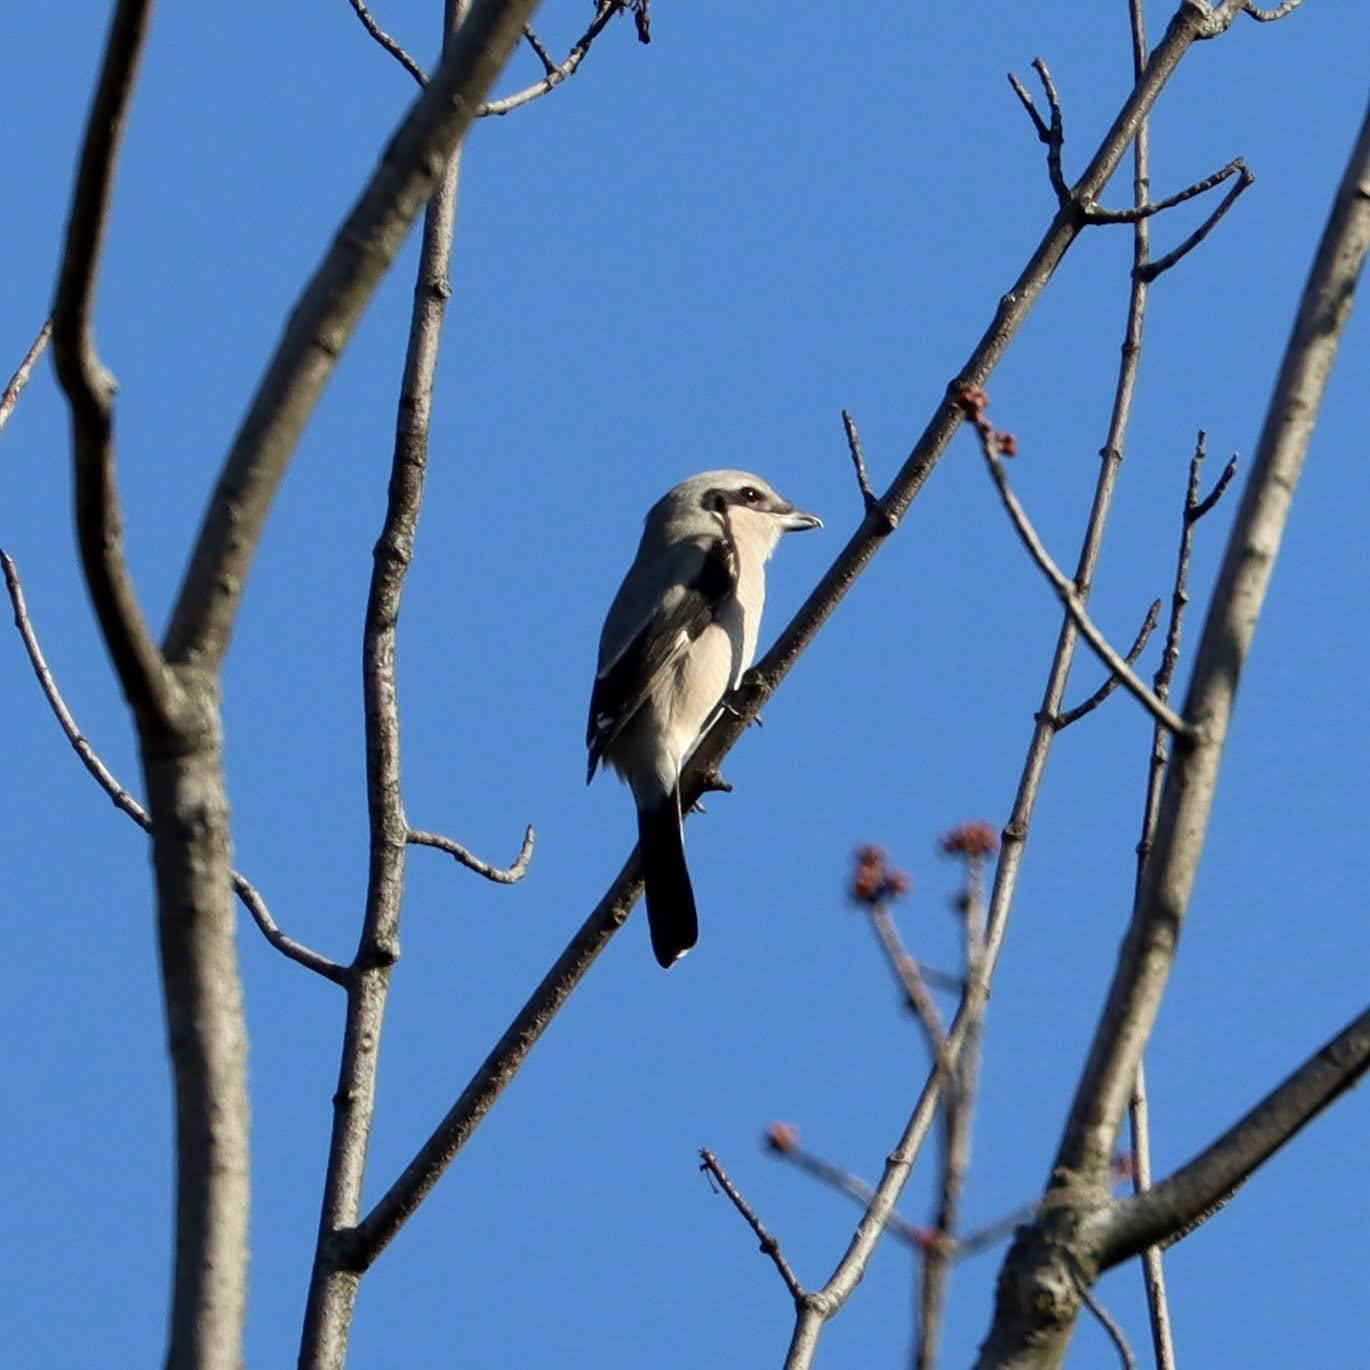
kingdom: Animalia
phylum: Chordata
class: Aves
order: Passeriformes
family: Laniidae
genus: Lanius
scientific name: Lanius borealis
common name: Northern shrike
